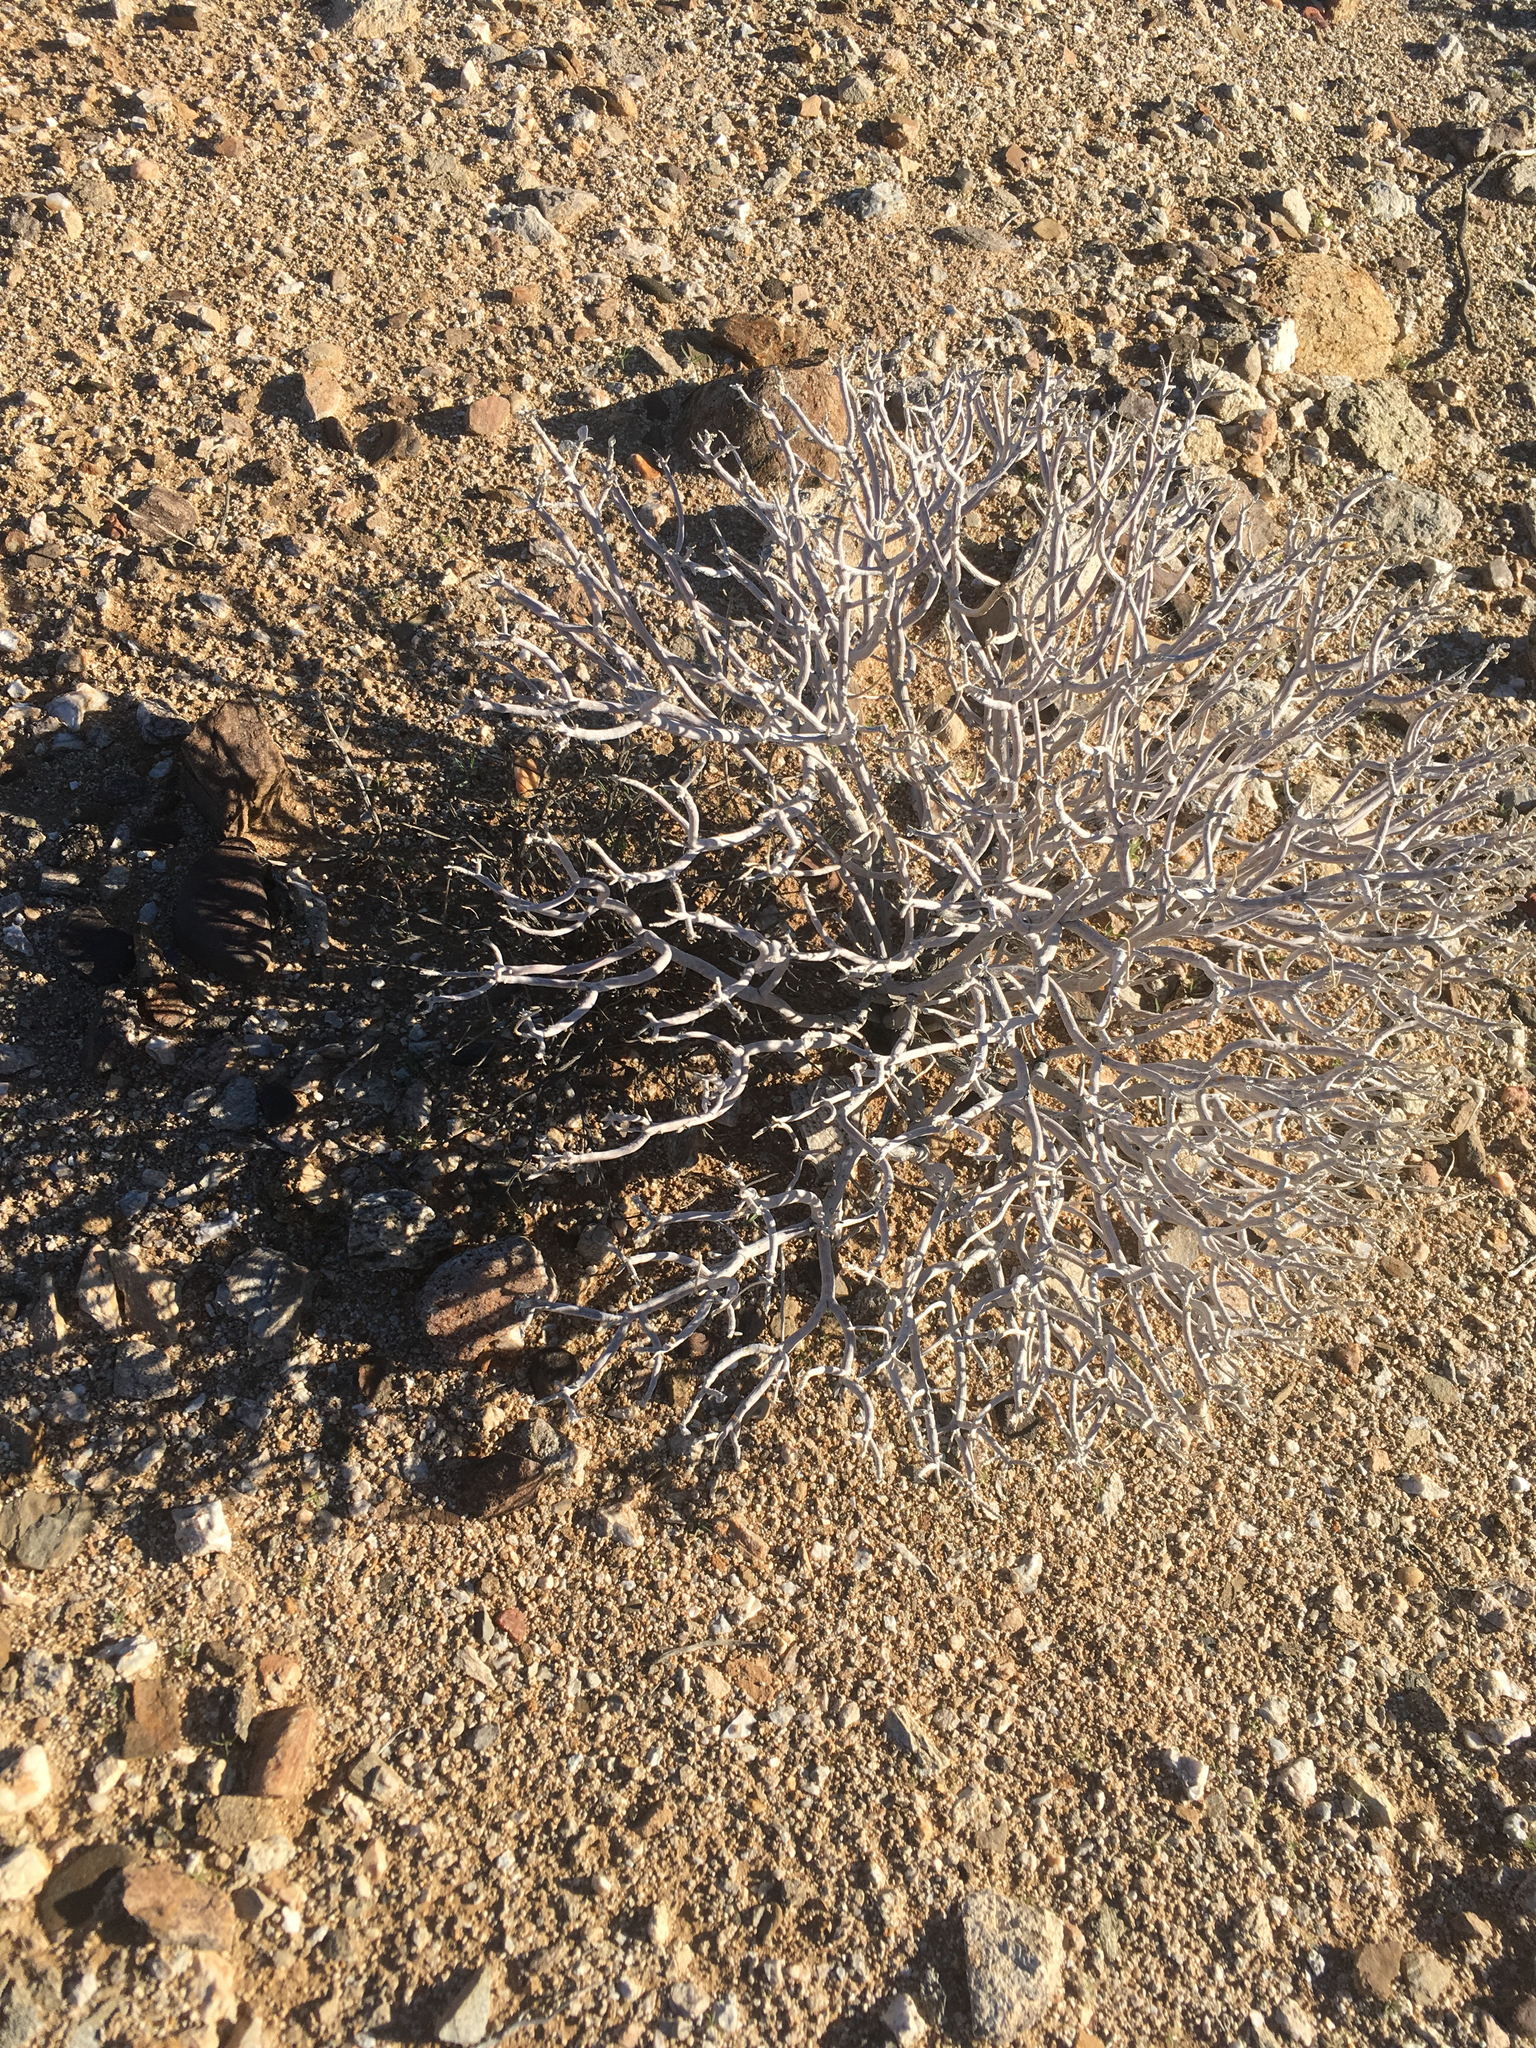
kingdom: Plantae
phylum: Tracheophyta
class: Magnoliopsida
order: Asterales
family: Asteraceae
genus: Encelia
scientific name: Encelia farinosa
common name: Brittlebush
